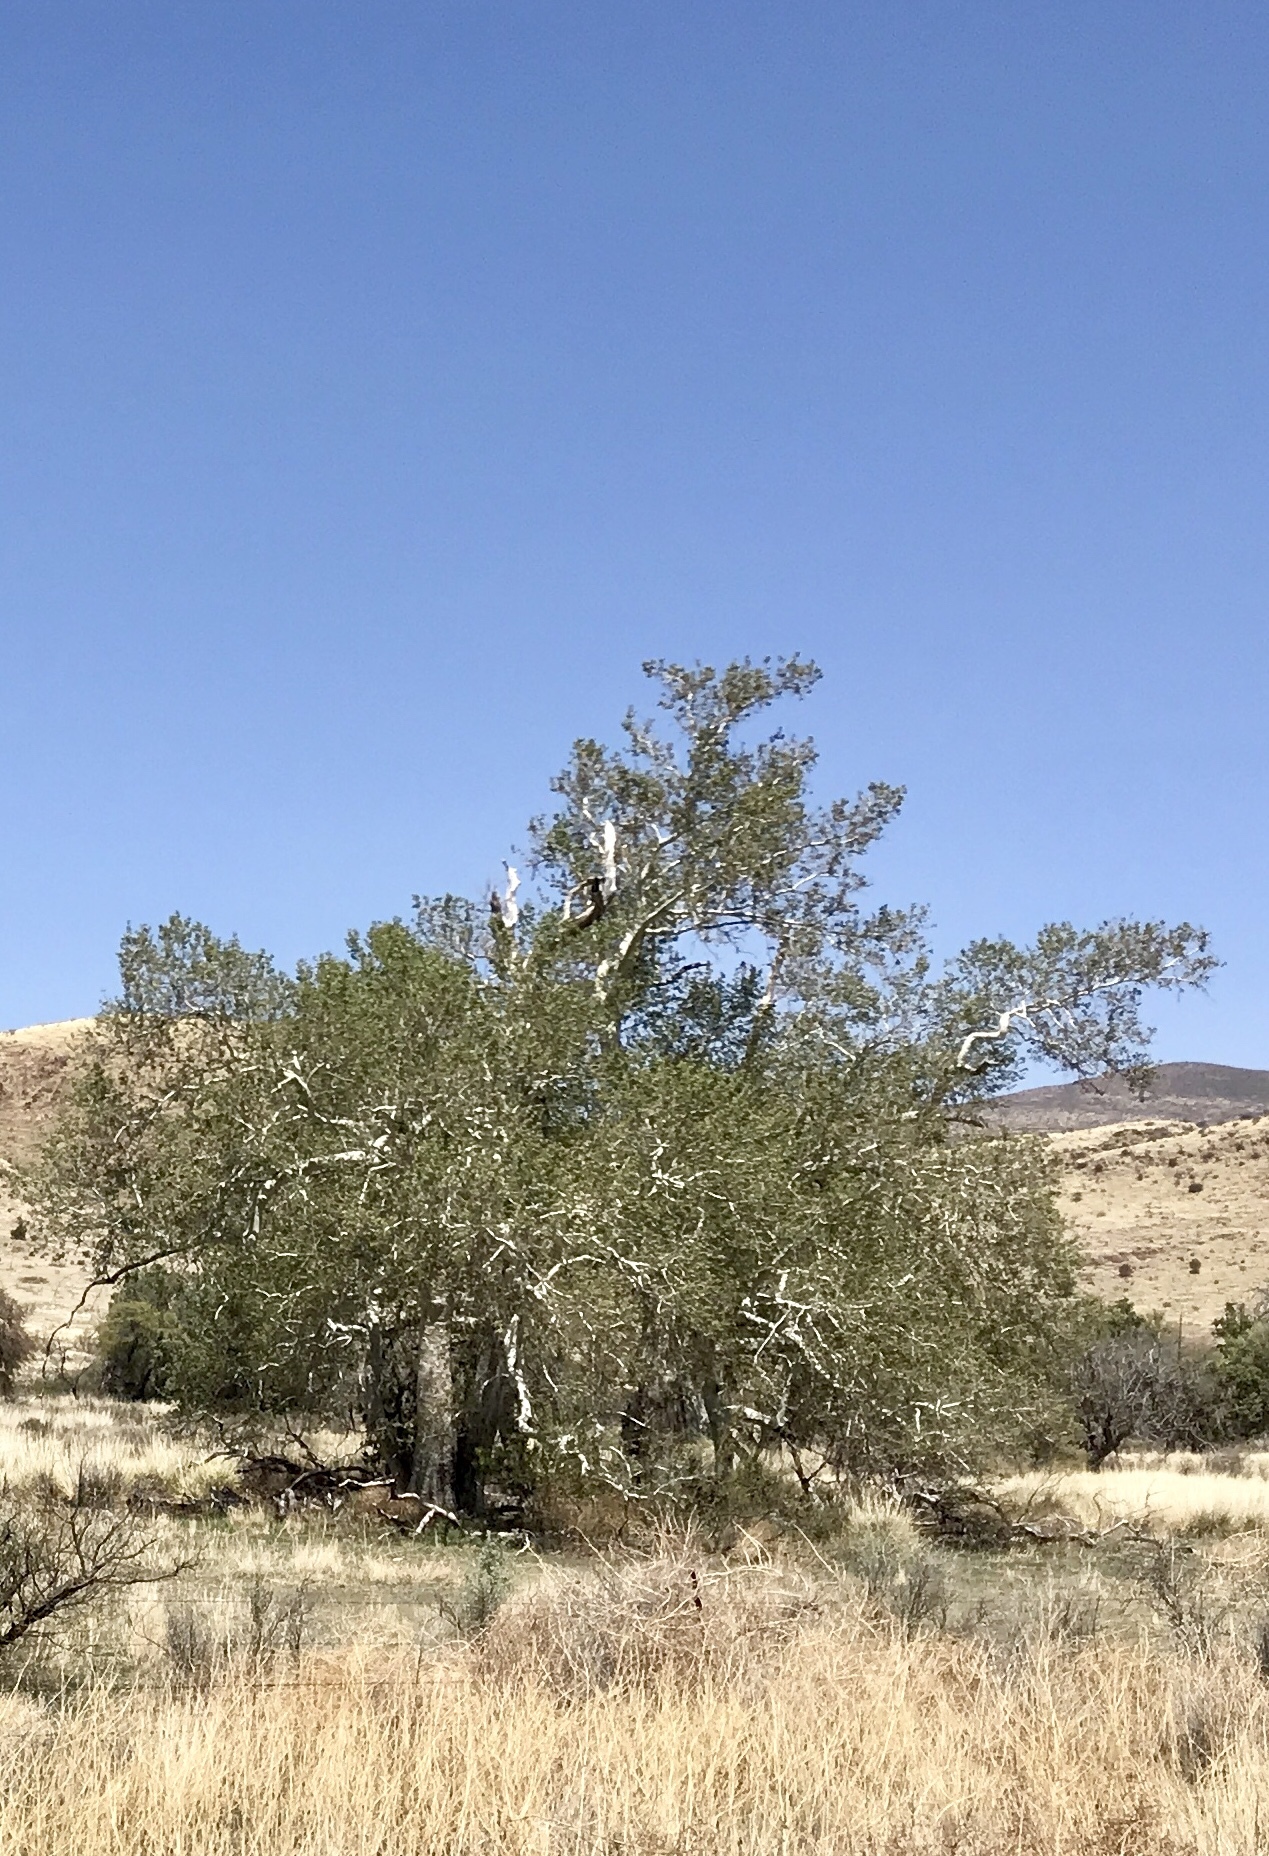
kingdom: Plantae
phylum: Tracheophyta
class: Magnoliopsida
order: Proteales
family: Platanaceae
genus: Platanus
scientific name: Platanus wrightii
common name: Arizona sycamore
